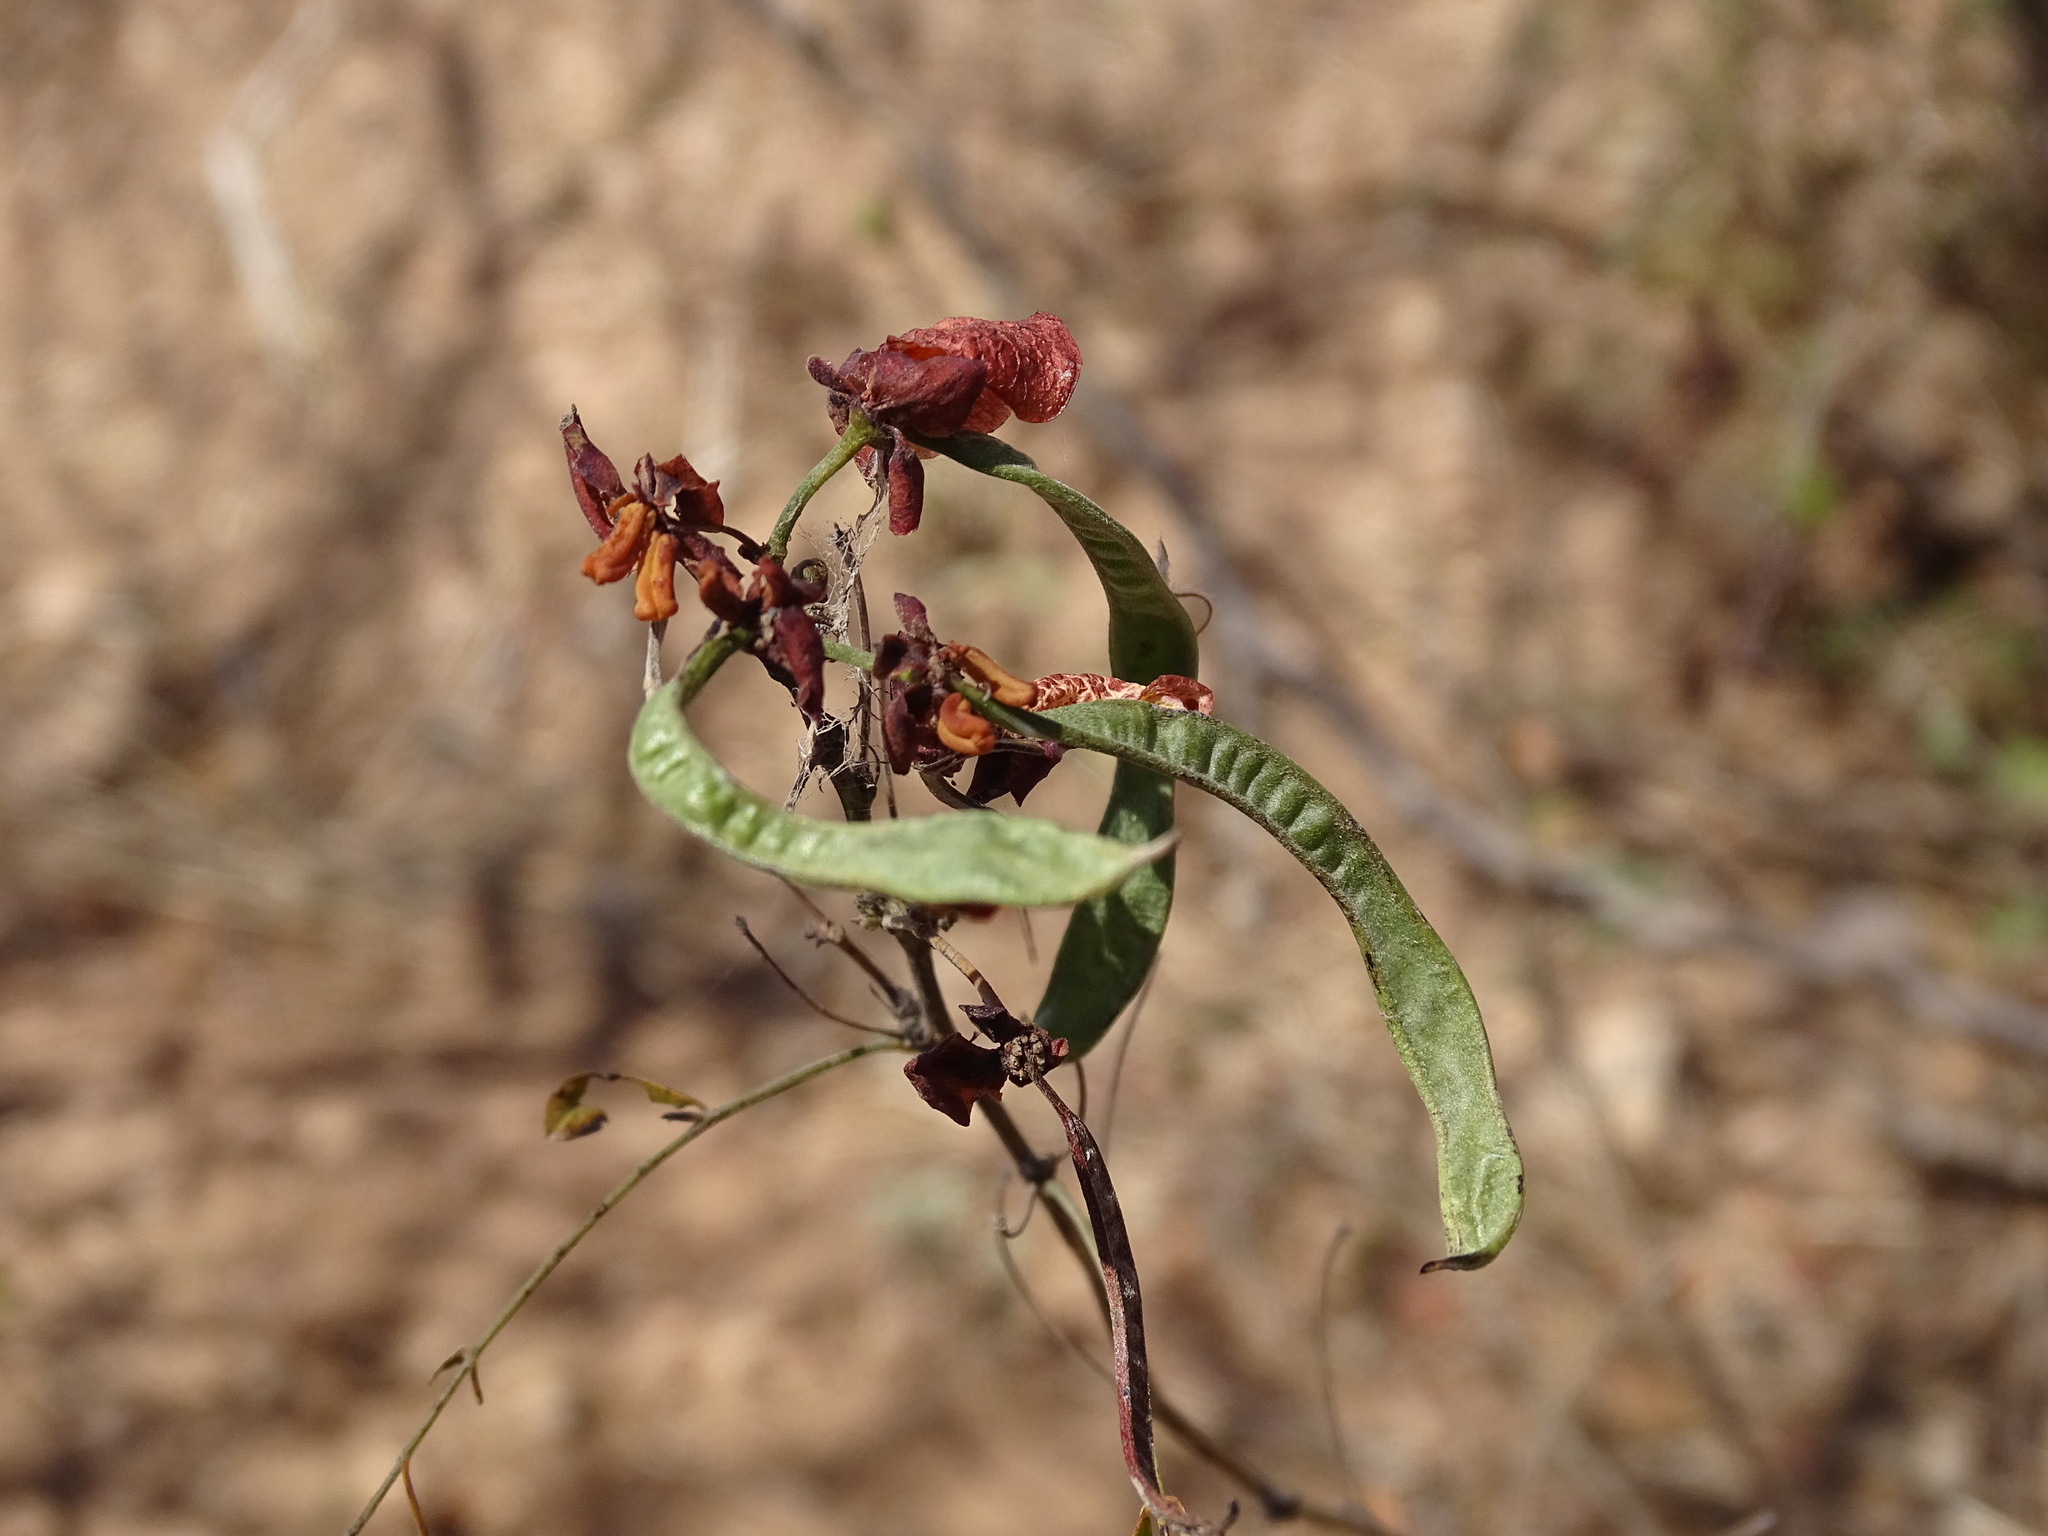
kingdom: Plantae
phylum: Tracheophyta
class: Magnoliopsida
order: Fabales
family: Fabaceae
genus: Erythrostemon
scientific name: Erythrostemon palmeri
